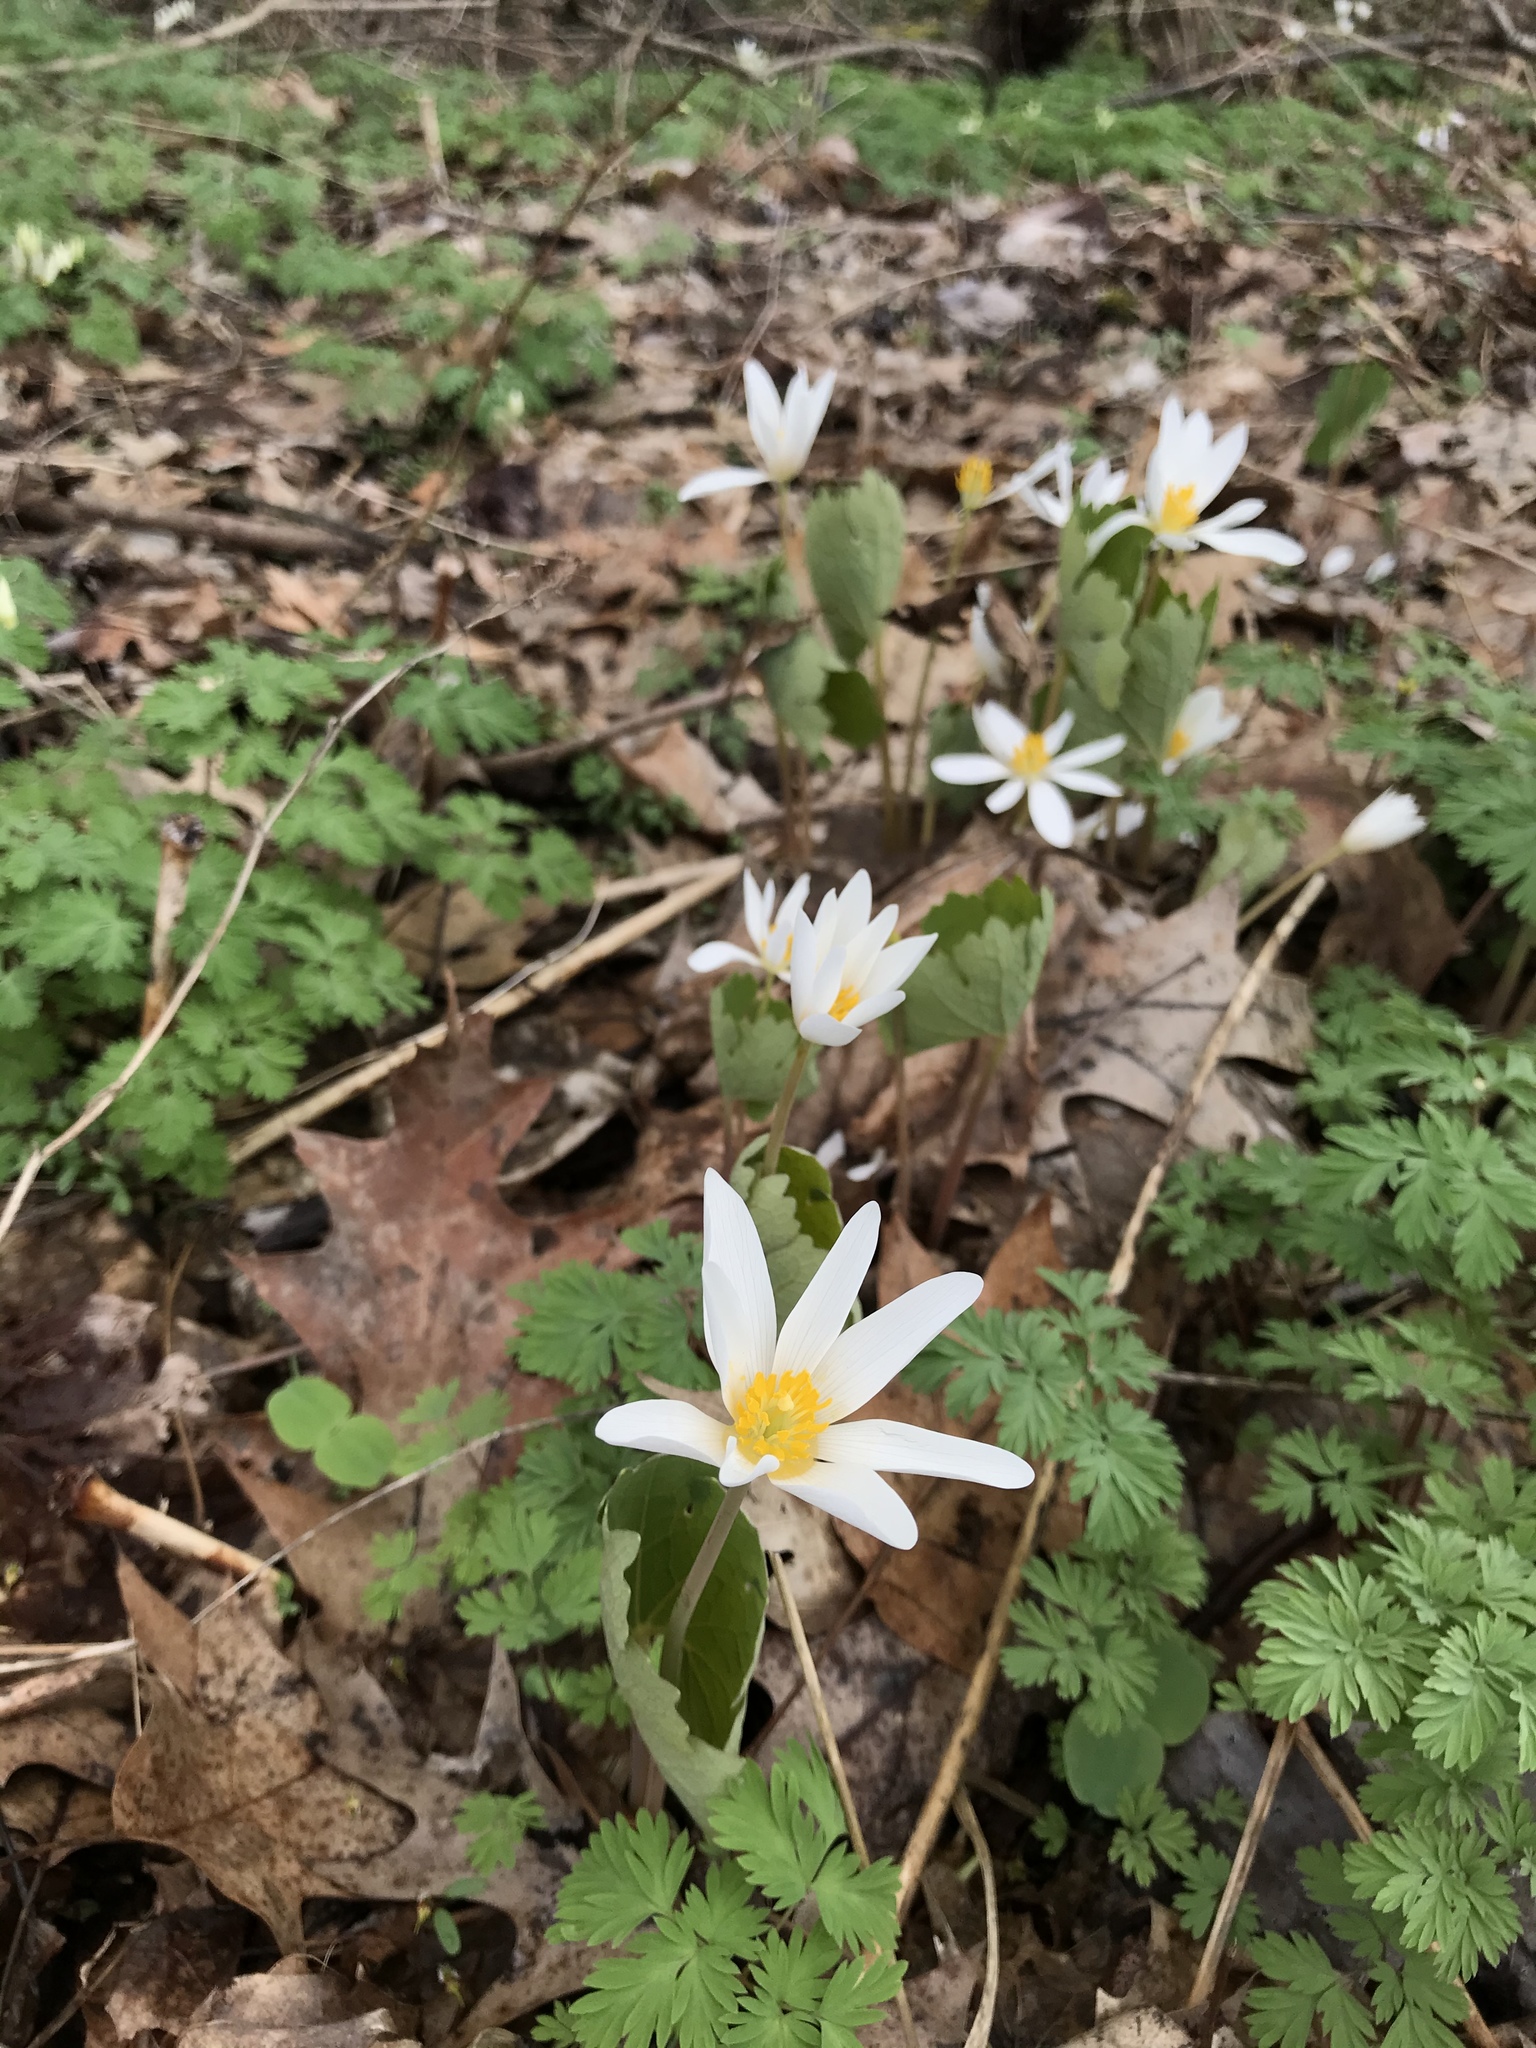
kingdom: Plantae
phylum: Tracheophyta
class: Magnoliopsida
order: Ranunculales
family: Papaveraceae
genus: Sanguinaria
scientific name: Sanguinaria canadensis
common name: Bloodroot
